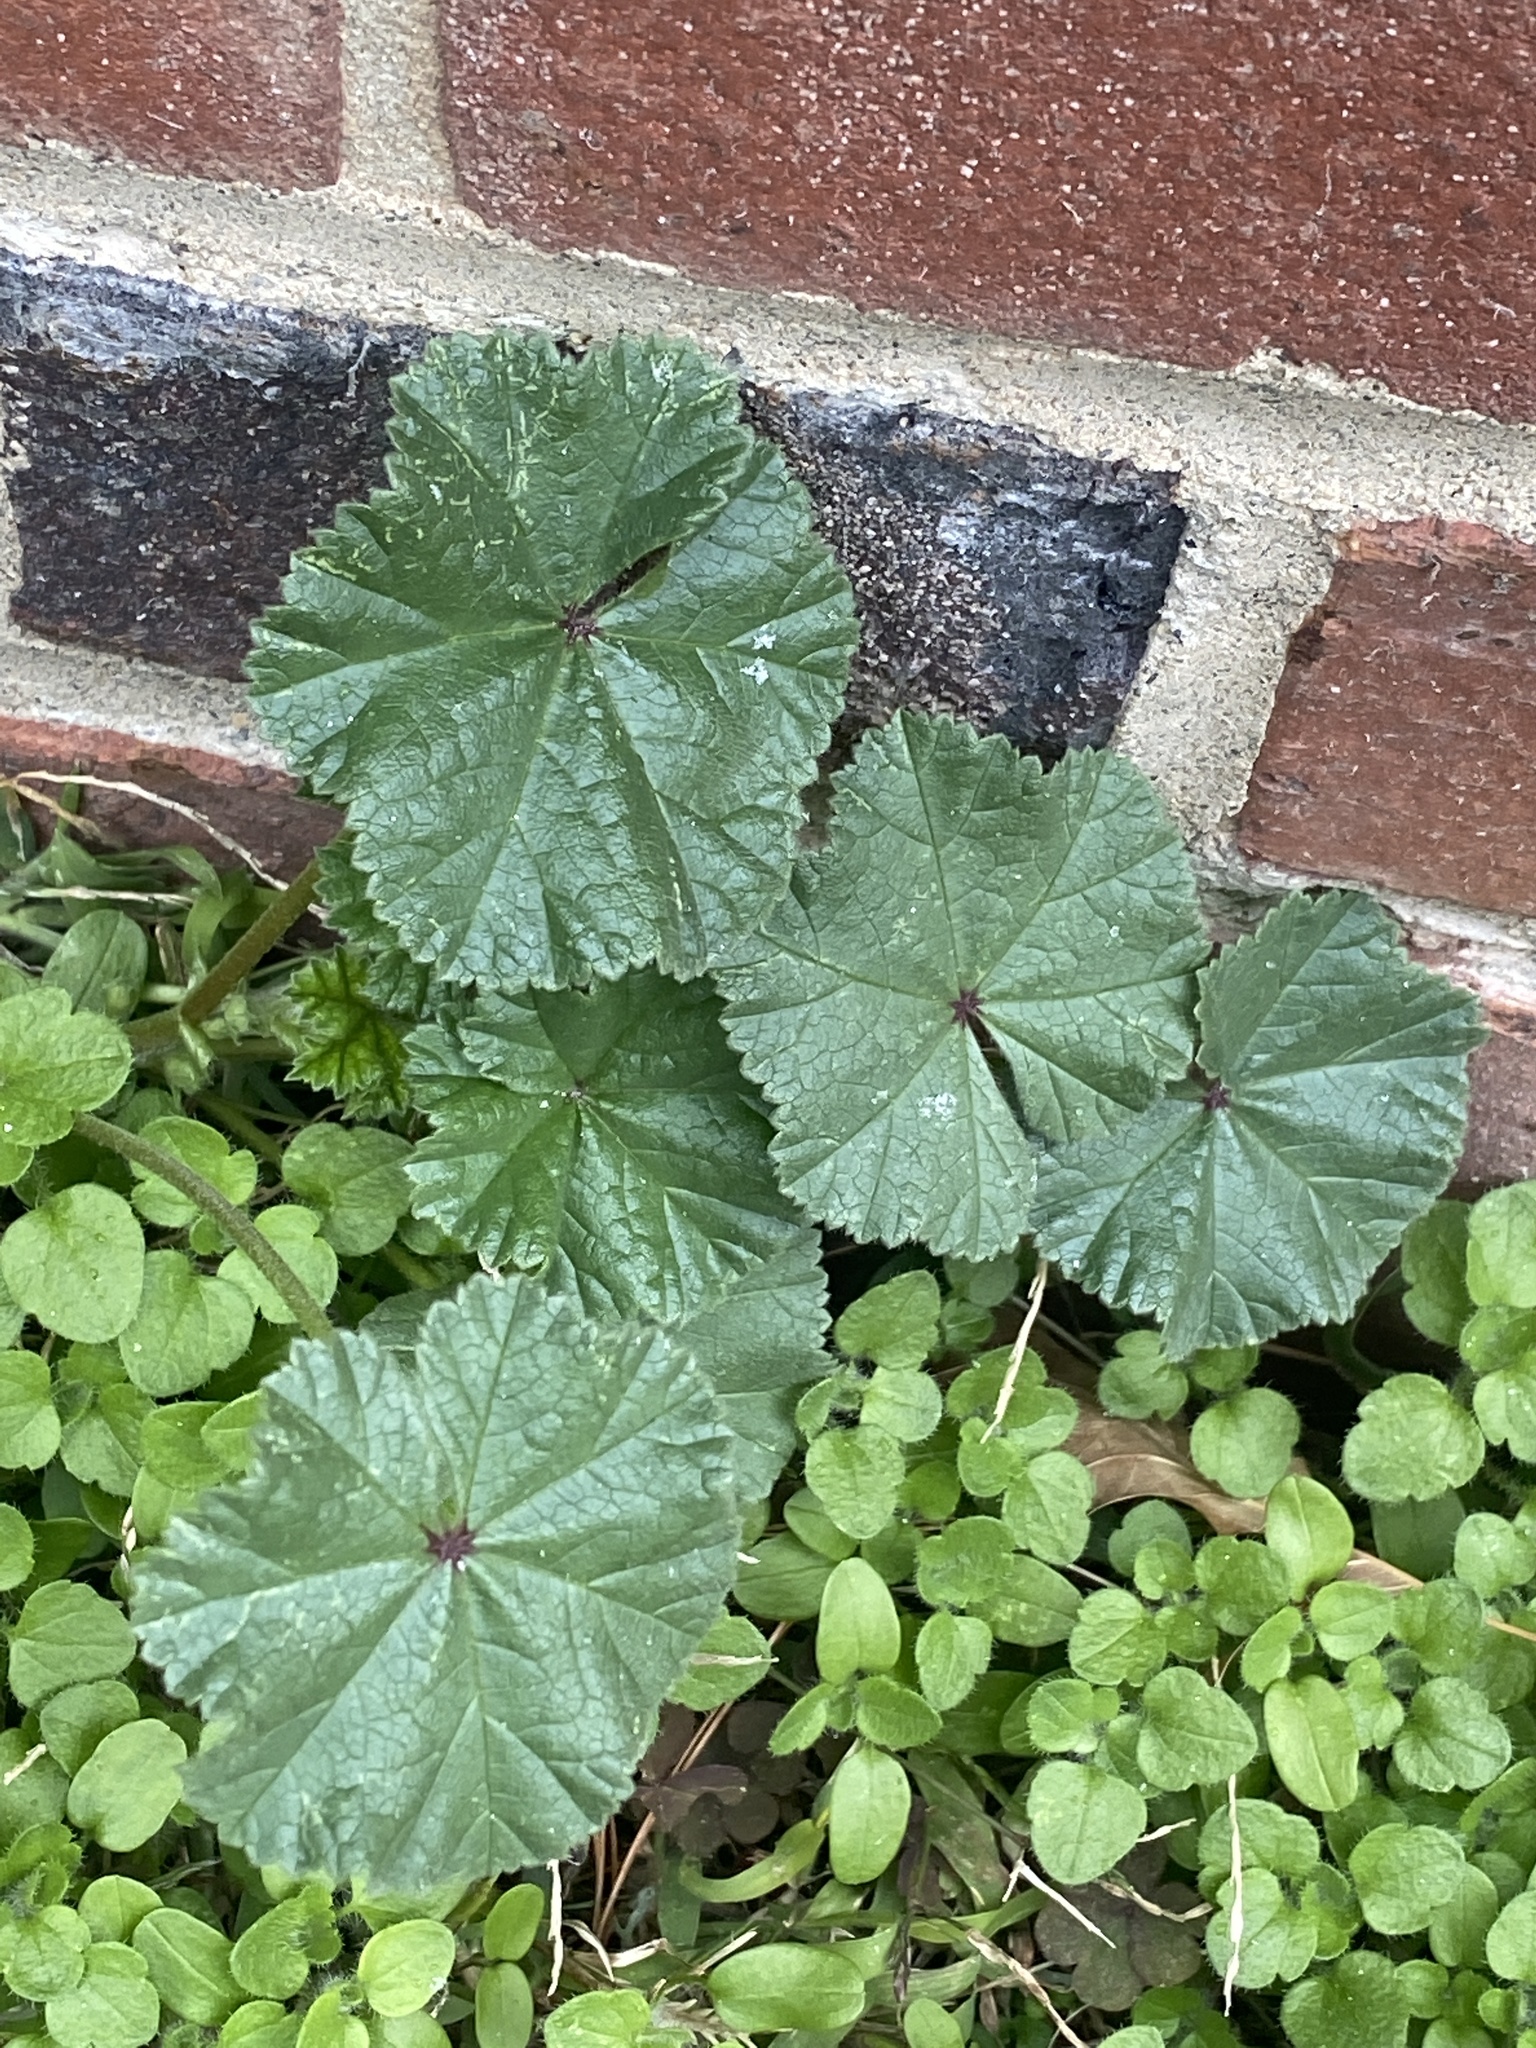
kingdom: Plantae
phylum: Tracheophyta
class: Magnoliopsida
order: Malvales
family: Malvaceae
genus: Malva
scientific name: Malva neglecta
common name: Common mallow
